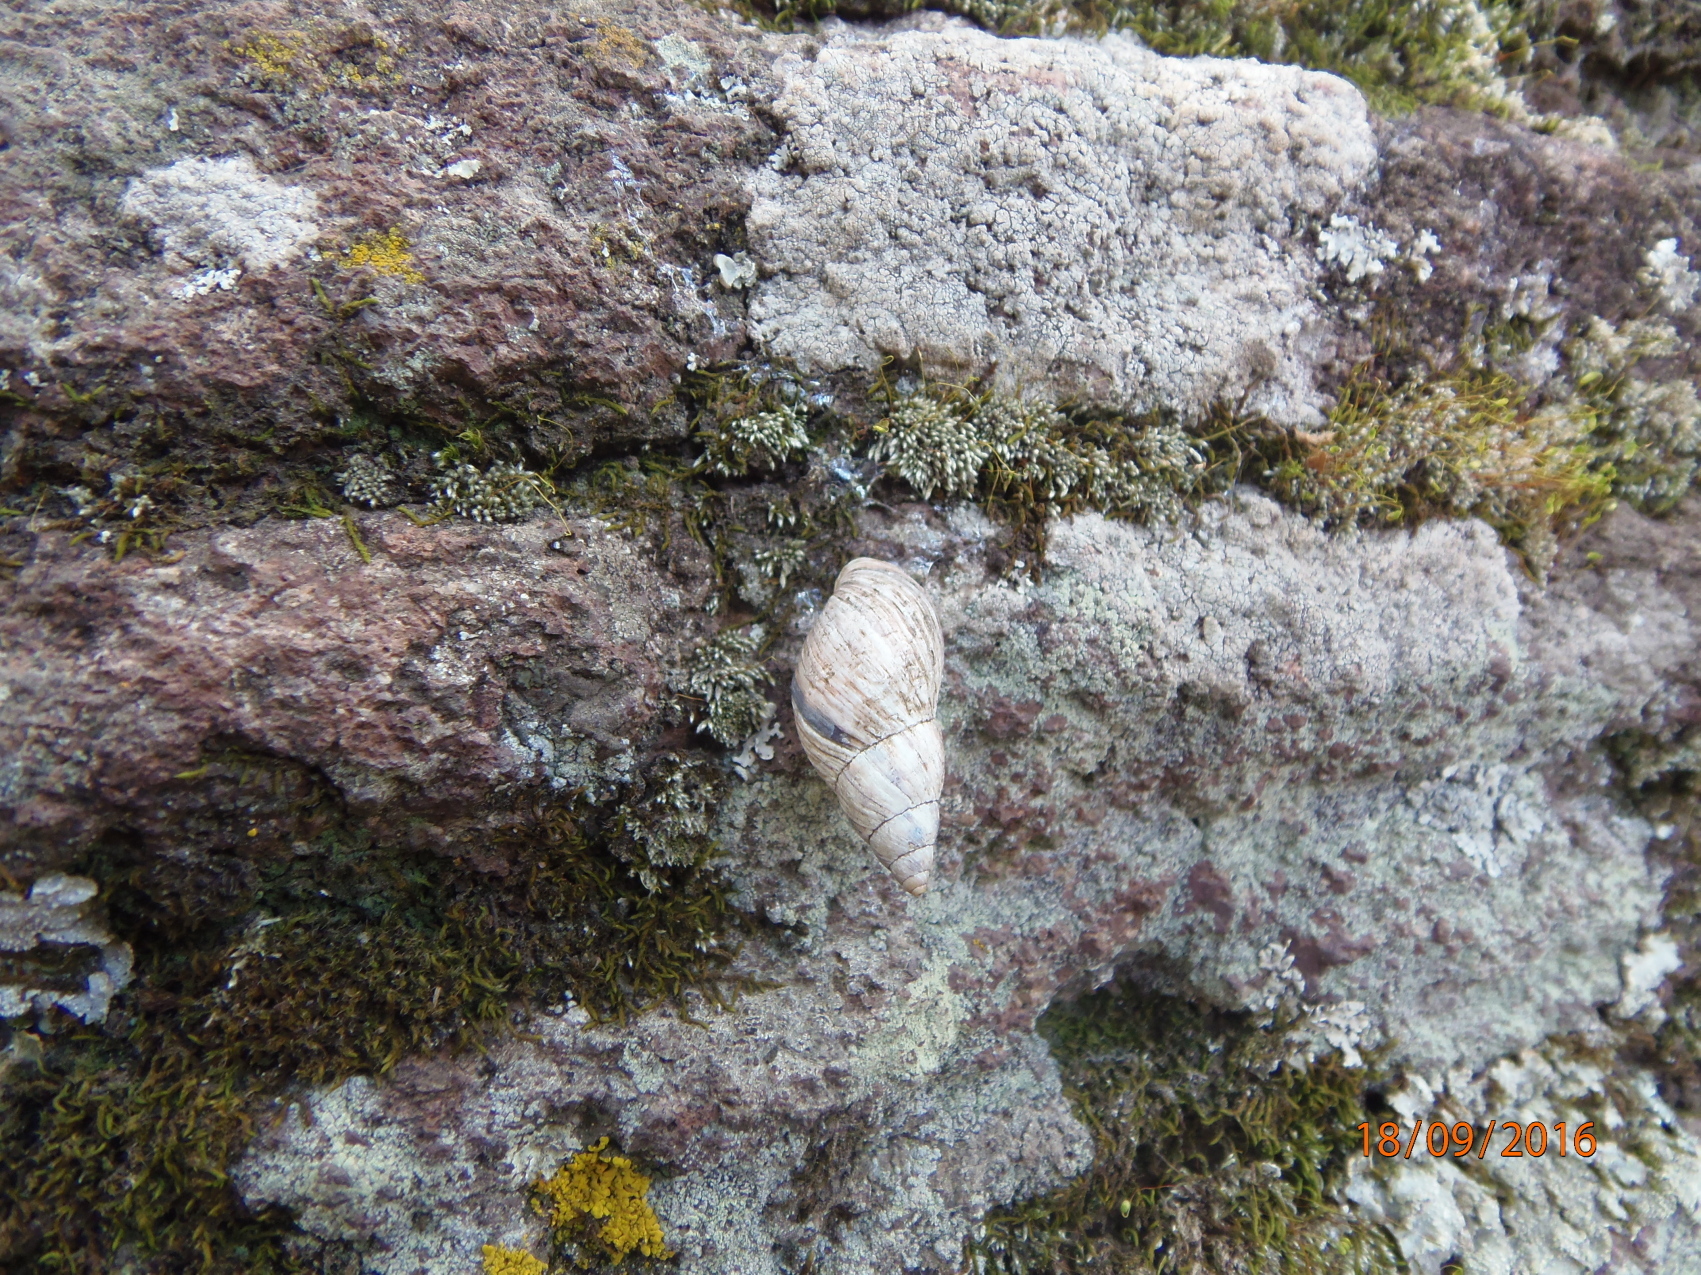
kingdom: Animalia
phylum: Mollusca
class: Gastropoda
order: Stylommatophora
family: Bulimulidae
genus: Drymaeus
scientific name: Drymaeus
